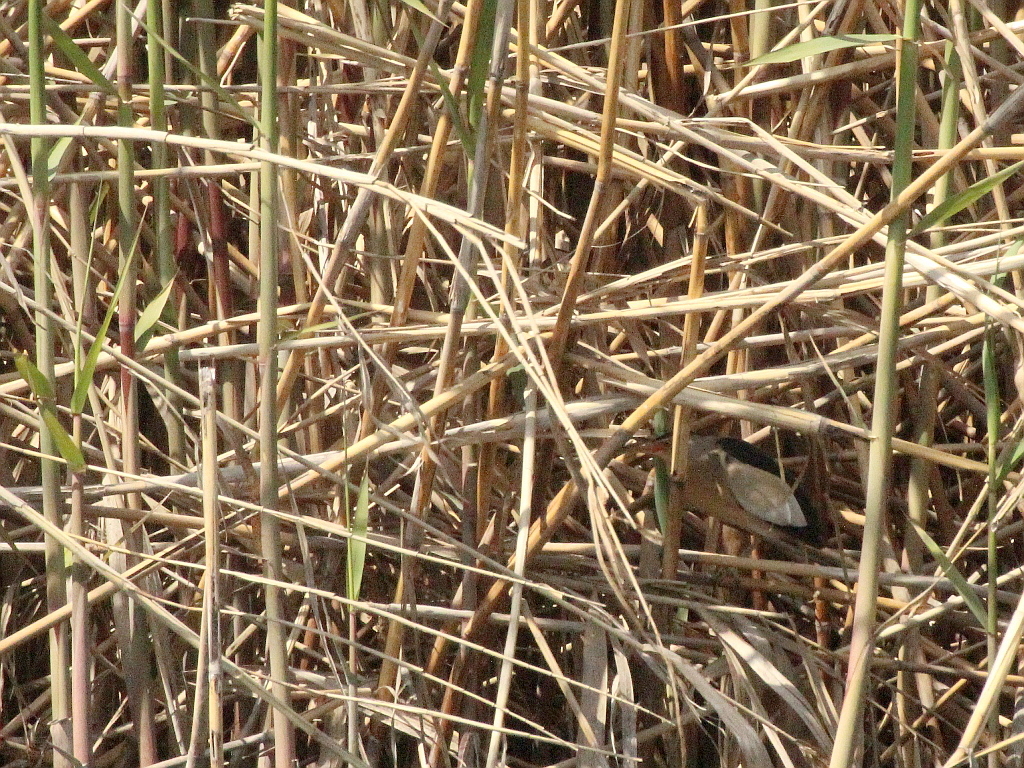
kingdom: Animalia
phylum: Chordata
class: Aves
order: Pelecaniformes
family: Ardeidae
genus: Ixobrychus
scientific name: Ixobrychus minutus
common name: Little bittern
